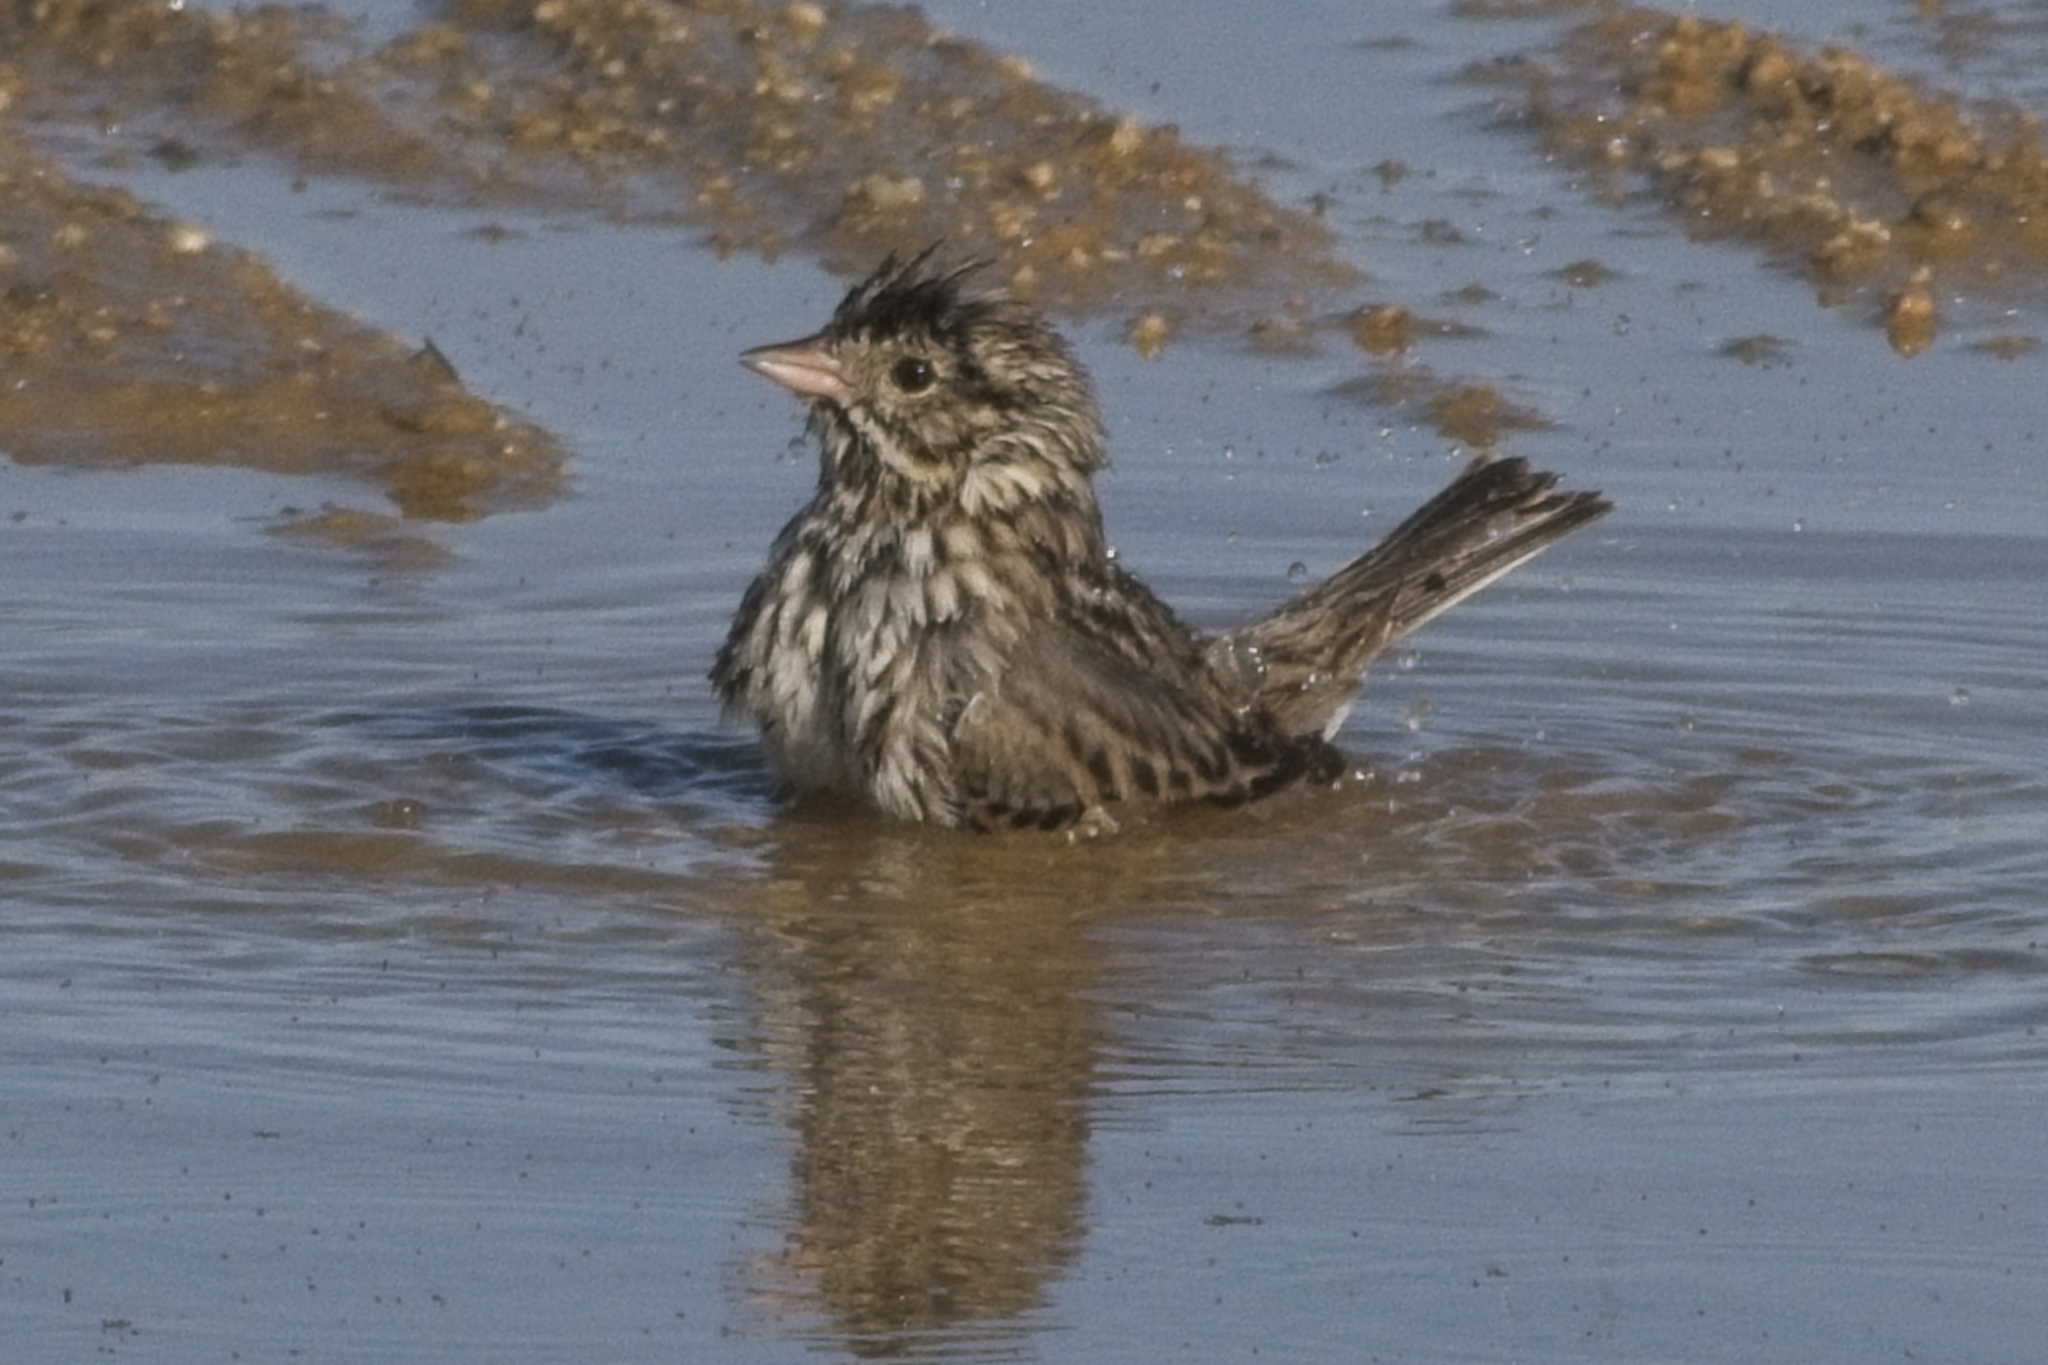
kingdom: Animalia
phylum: Chordata
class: Aves
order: Passeriformes
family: Passerellidae
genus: Passerculus
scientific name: Passerculus sandwichensis
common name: Savannah sparrow
